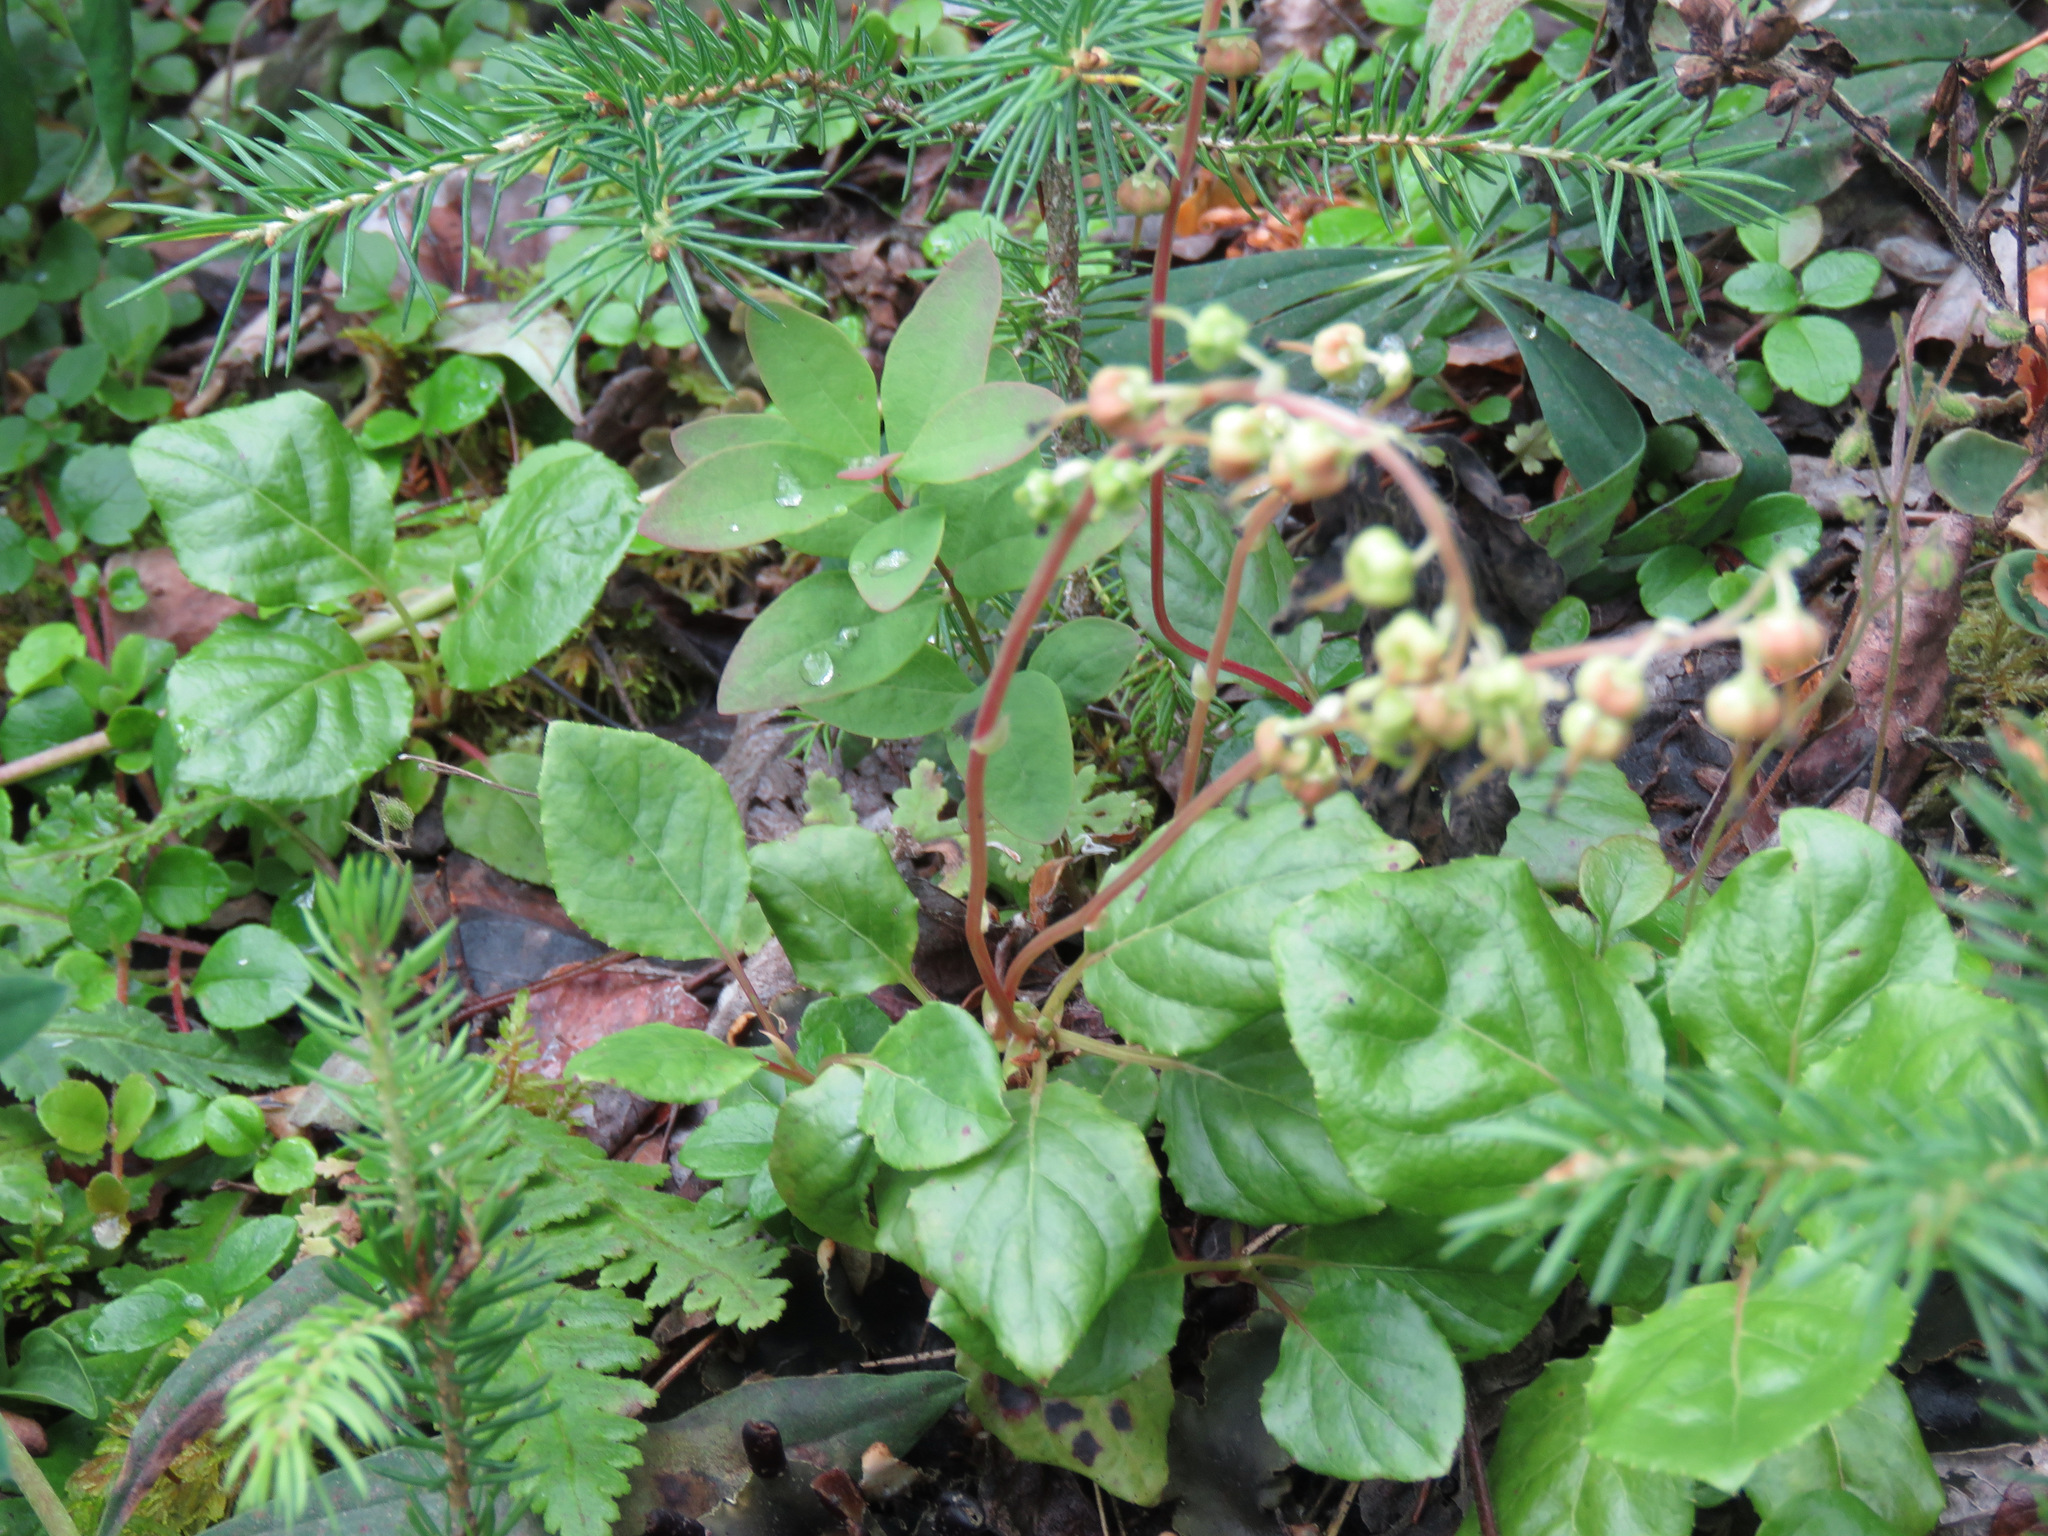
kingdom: Plantae
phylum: Tracheophyta
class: Magnoliopsida
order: Ericales
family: Ericaceae
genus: Orthilia
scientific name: Orthilia secunda
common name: One-sided orthilia
